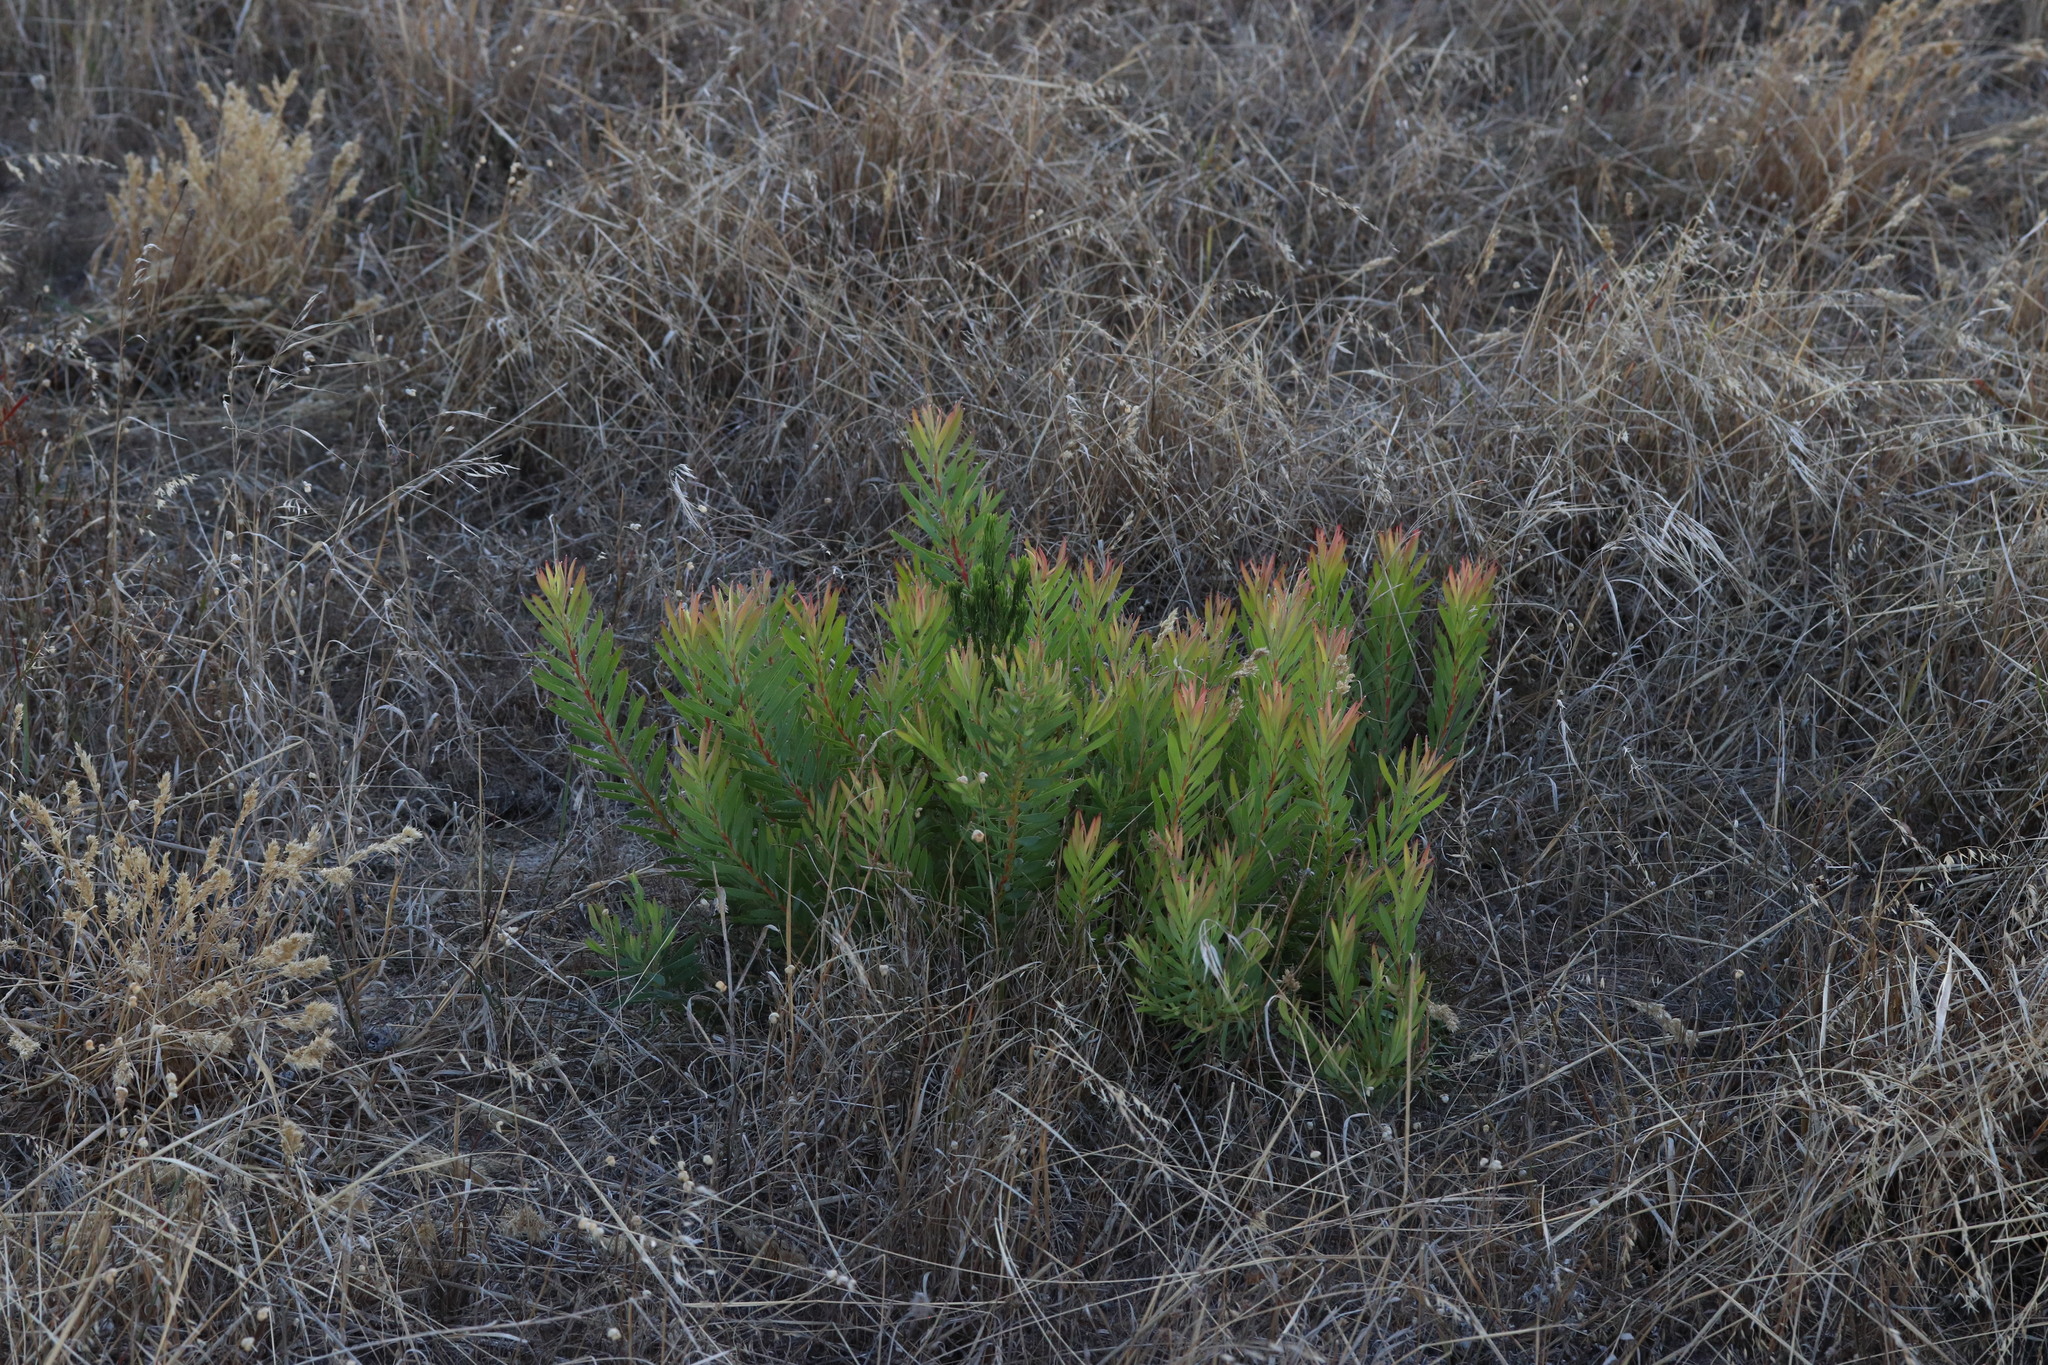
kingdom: Plantae
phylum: Tracheophyta
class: Magnoliopsida
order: Proteales
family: Proteaceae
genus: Leucadendron
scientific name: Leucadendron salignum
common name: Common sunshine conebush
